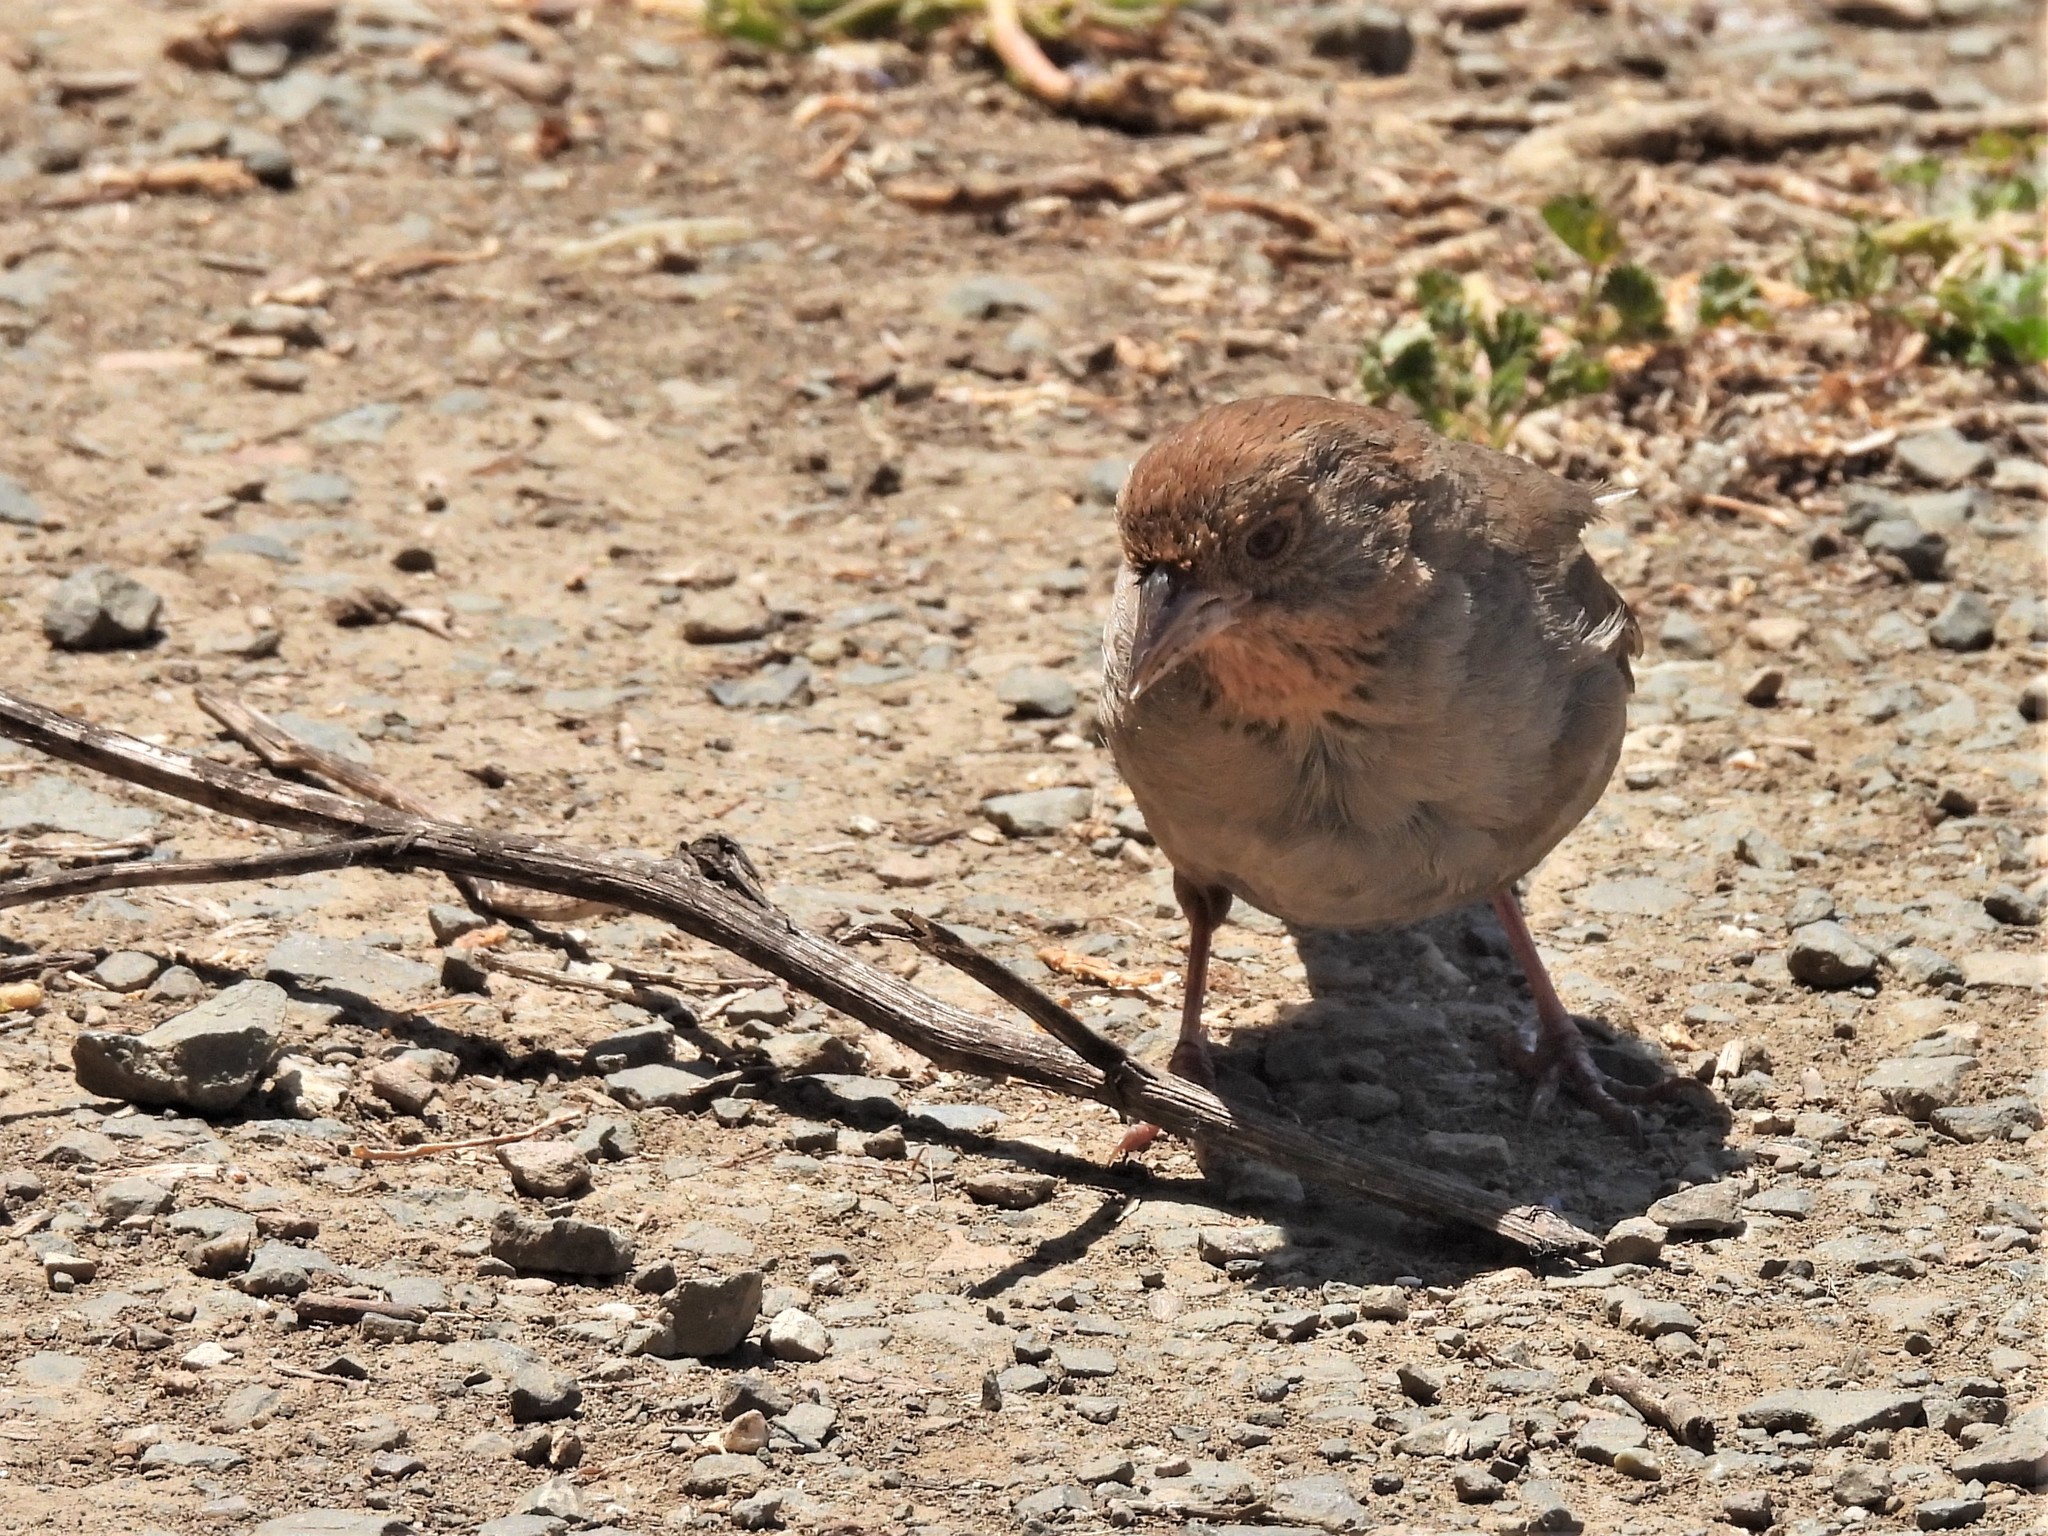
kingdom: Animalia
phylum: Chordata
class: Aves
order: Passeriformes
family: Passerellidae
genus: Melozone
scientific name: Melozone crissalis
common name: California towhee
